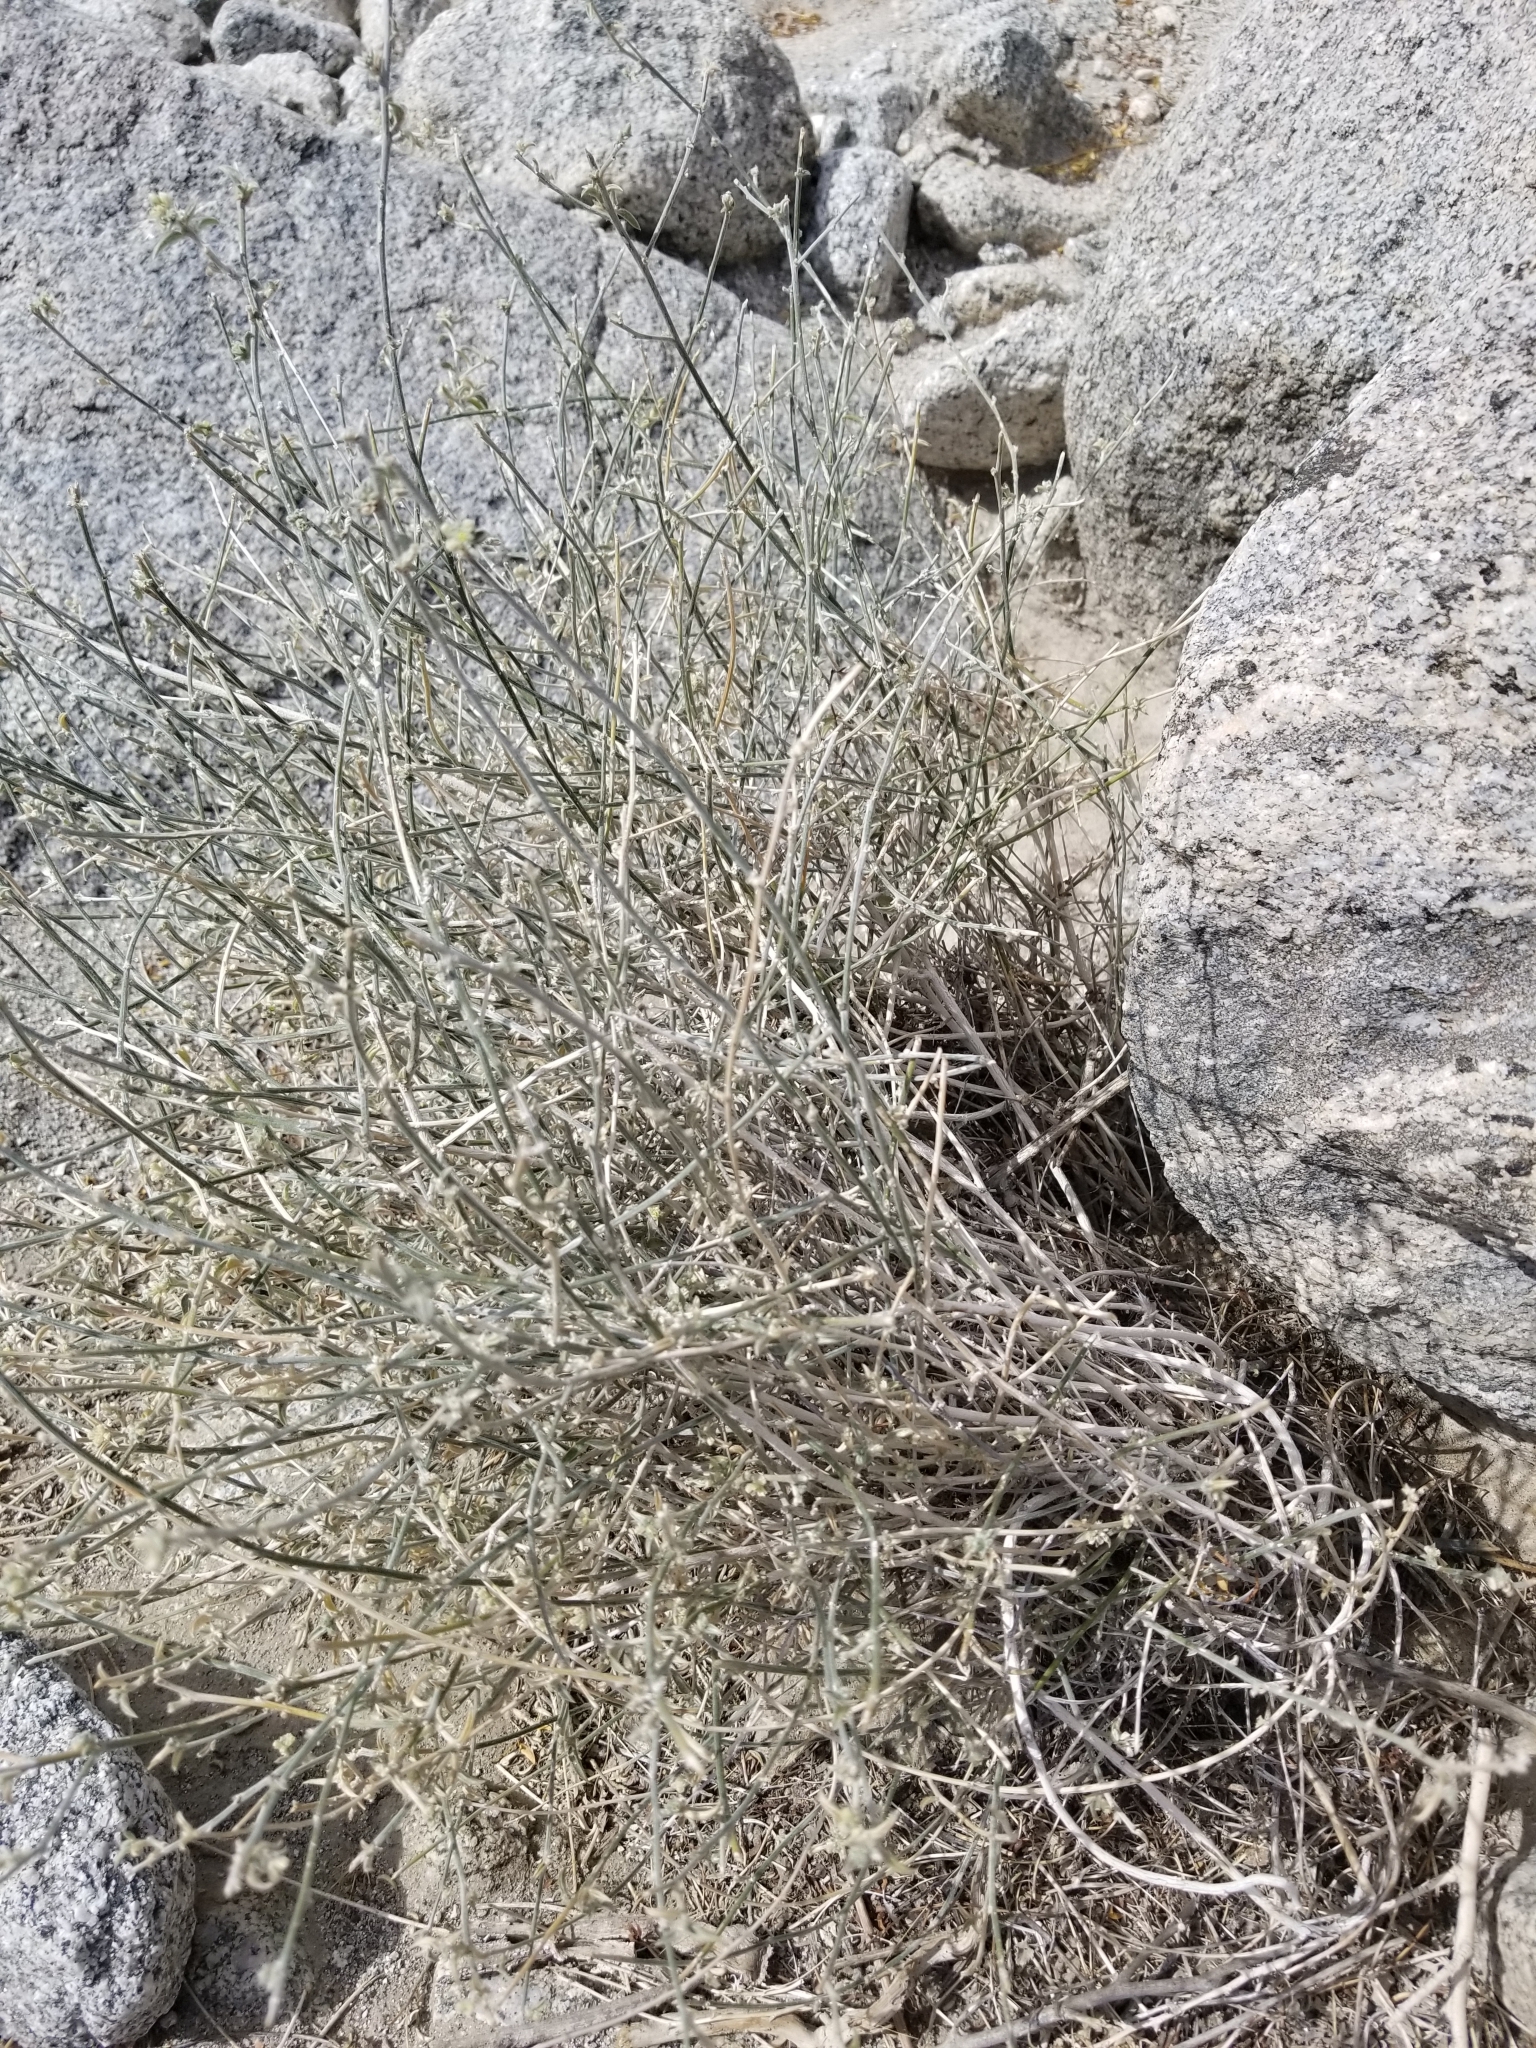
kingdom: Plantae
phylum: Tracheophyta
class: Magnoliopsida
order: Malpighiales
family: Euphorbiaceae
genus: Ditaxis
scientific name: Ditaxis lanceolata
